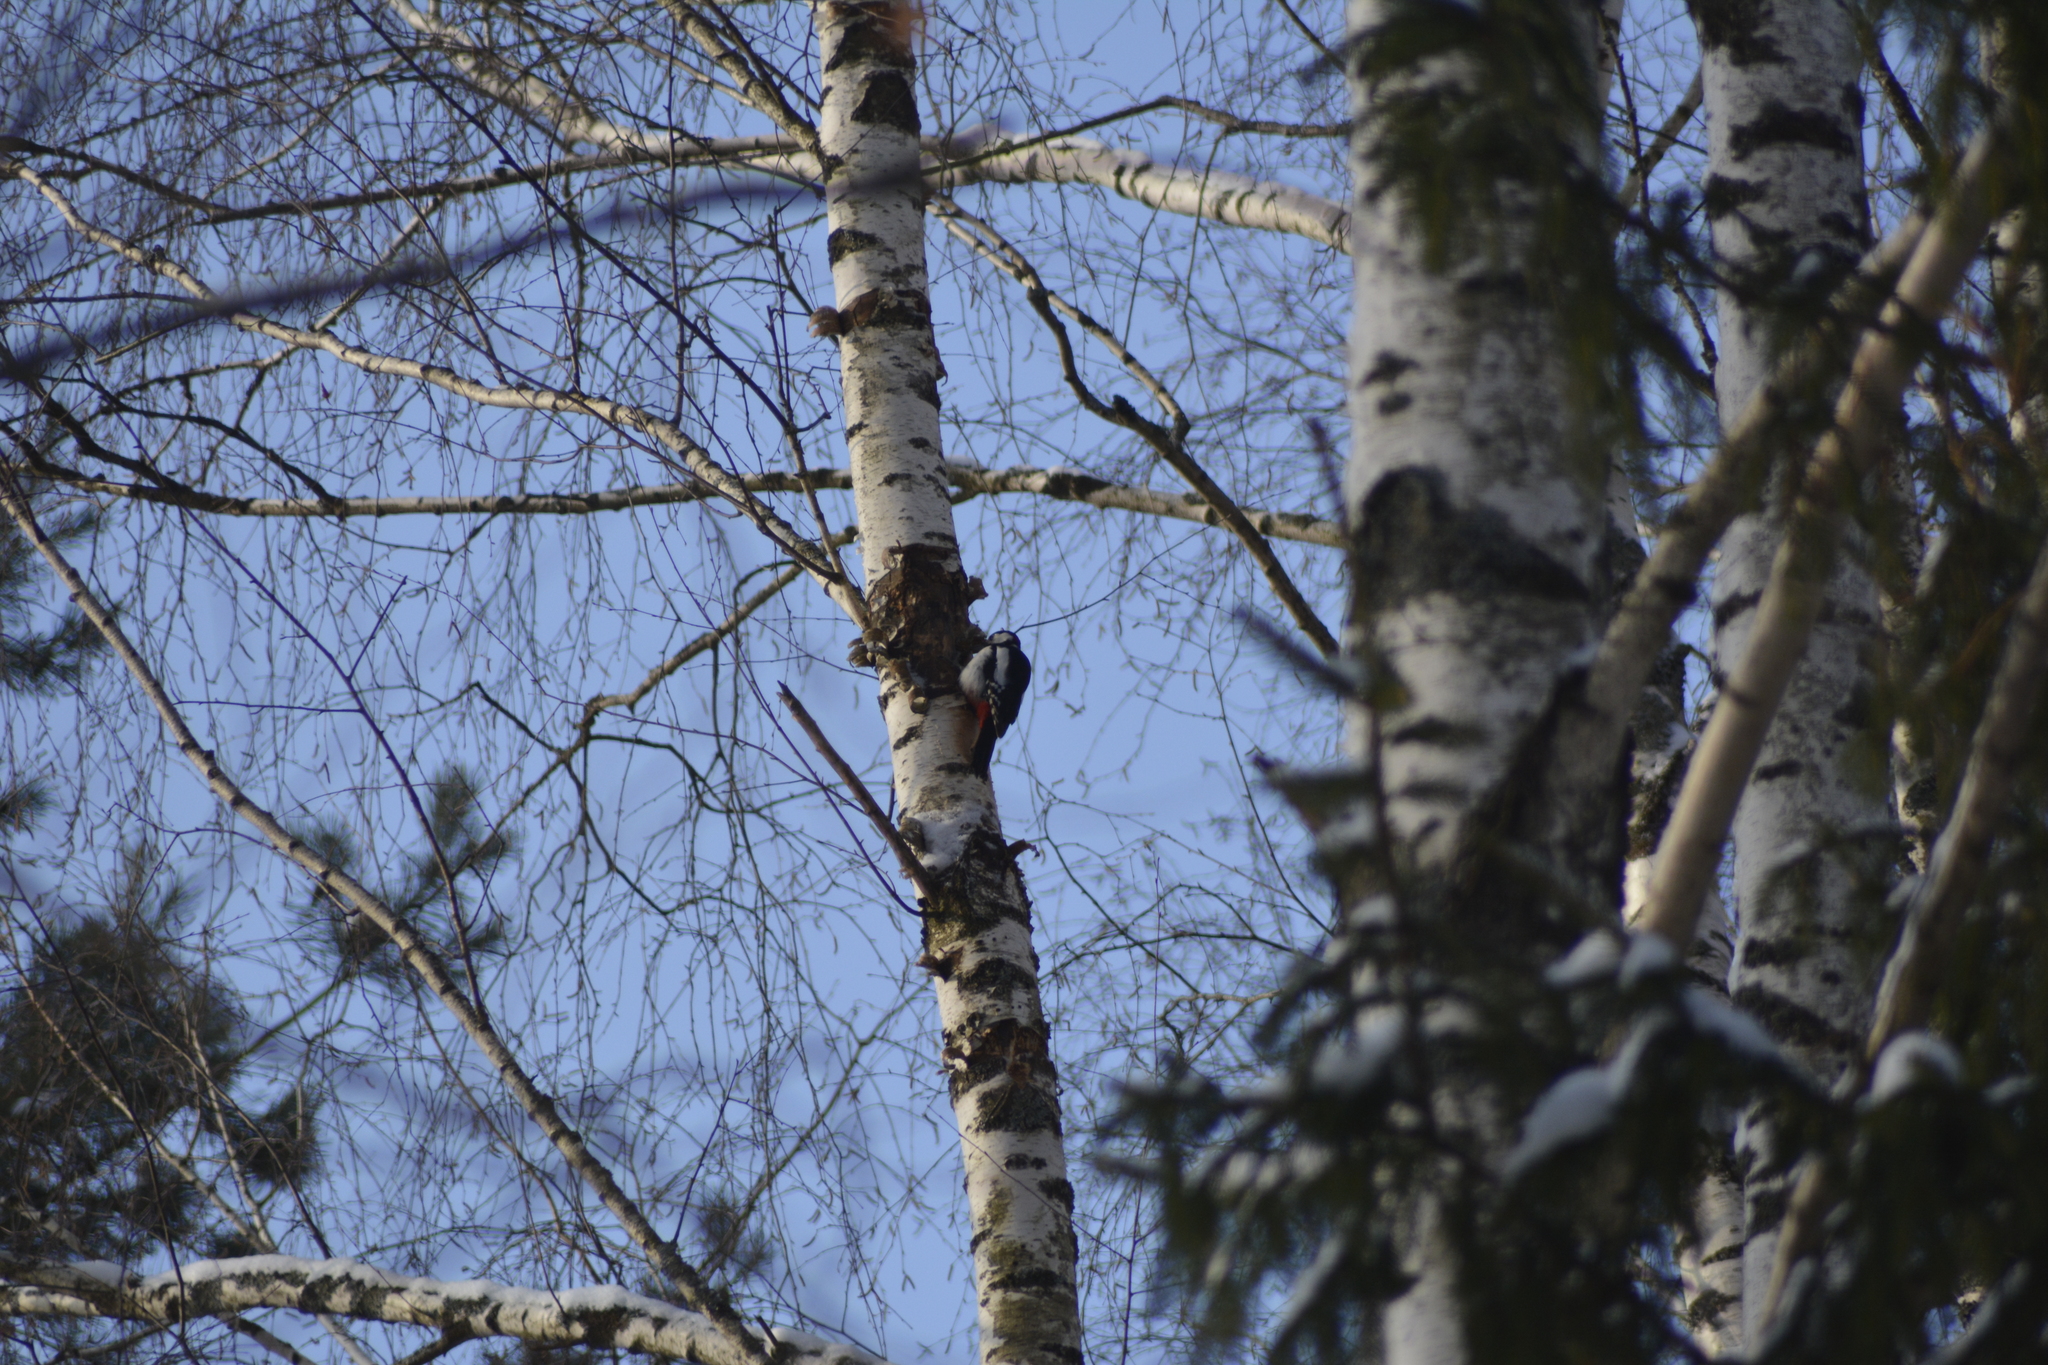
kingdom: Animalia
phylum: Chordata
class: Aves
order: Piciformes
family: Picidae
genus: Dendrocopos
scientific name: Dendrocopos major
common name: Great spotted woodpecker
